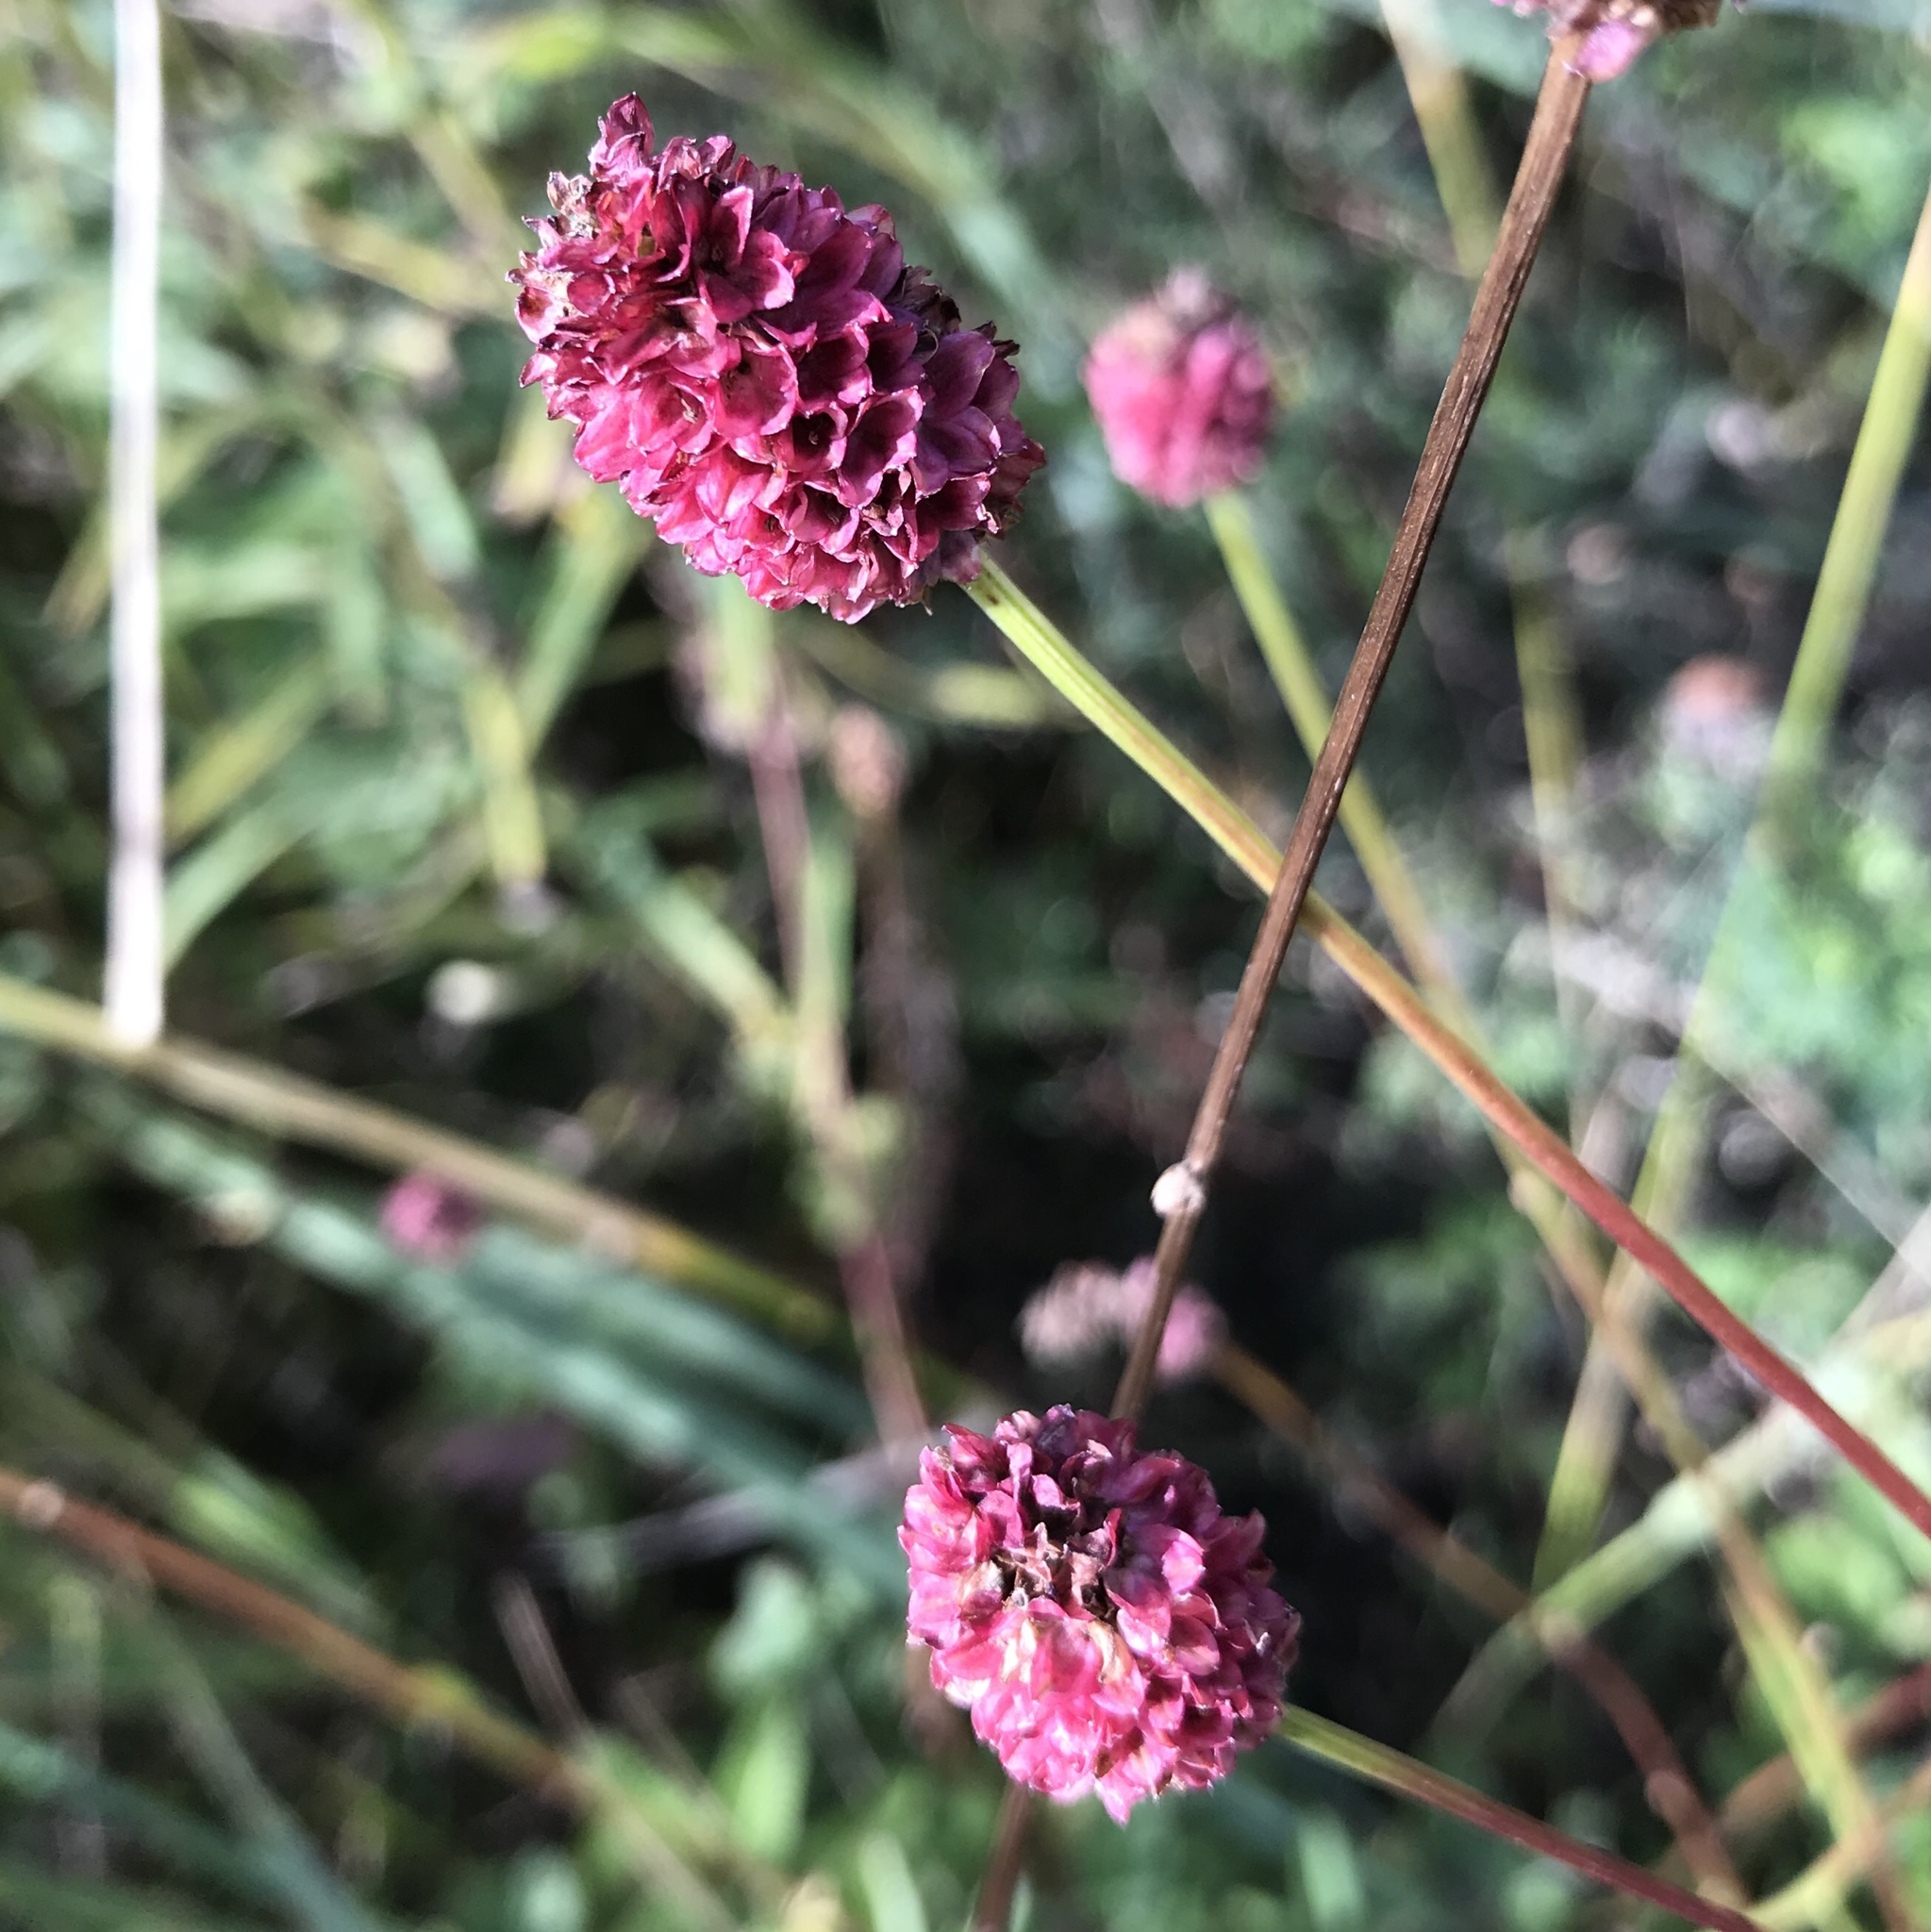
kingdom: Plantae
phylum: Tracheophyta
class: Magnoliopsida
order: Rosales
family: Rosaceae
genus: Sanguisorba
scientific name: Sanguisorba officinalis
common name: Great burnet
